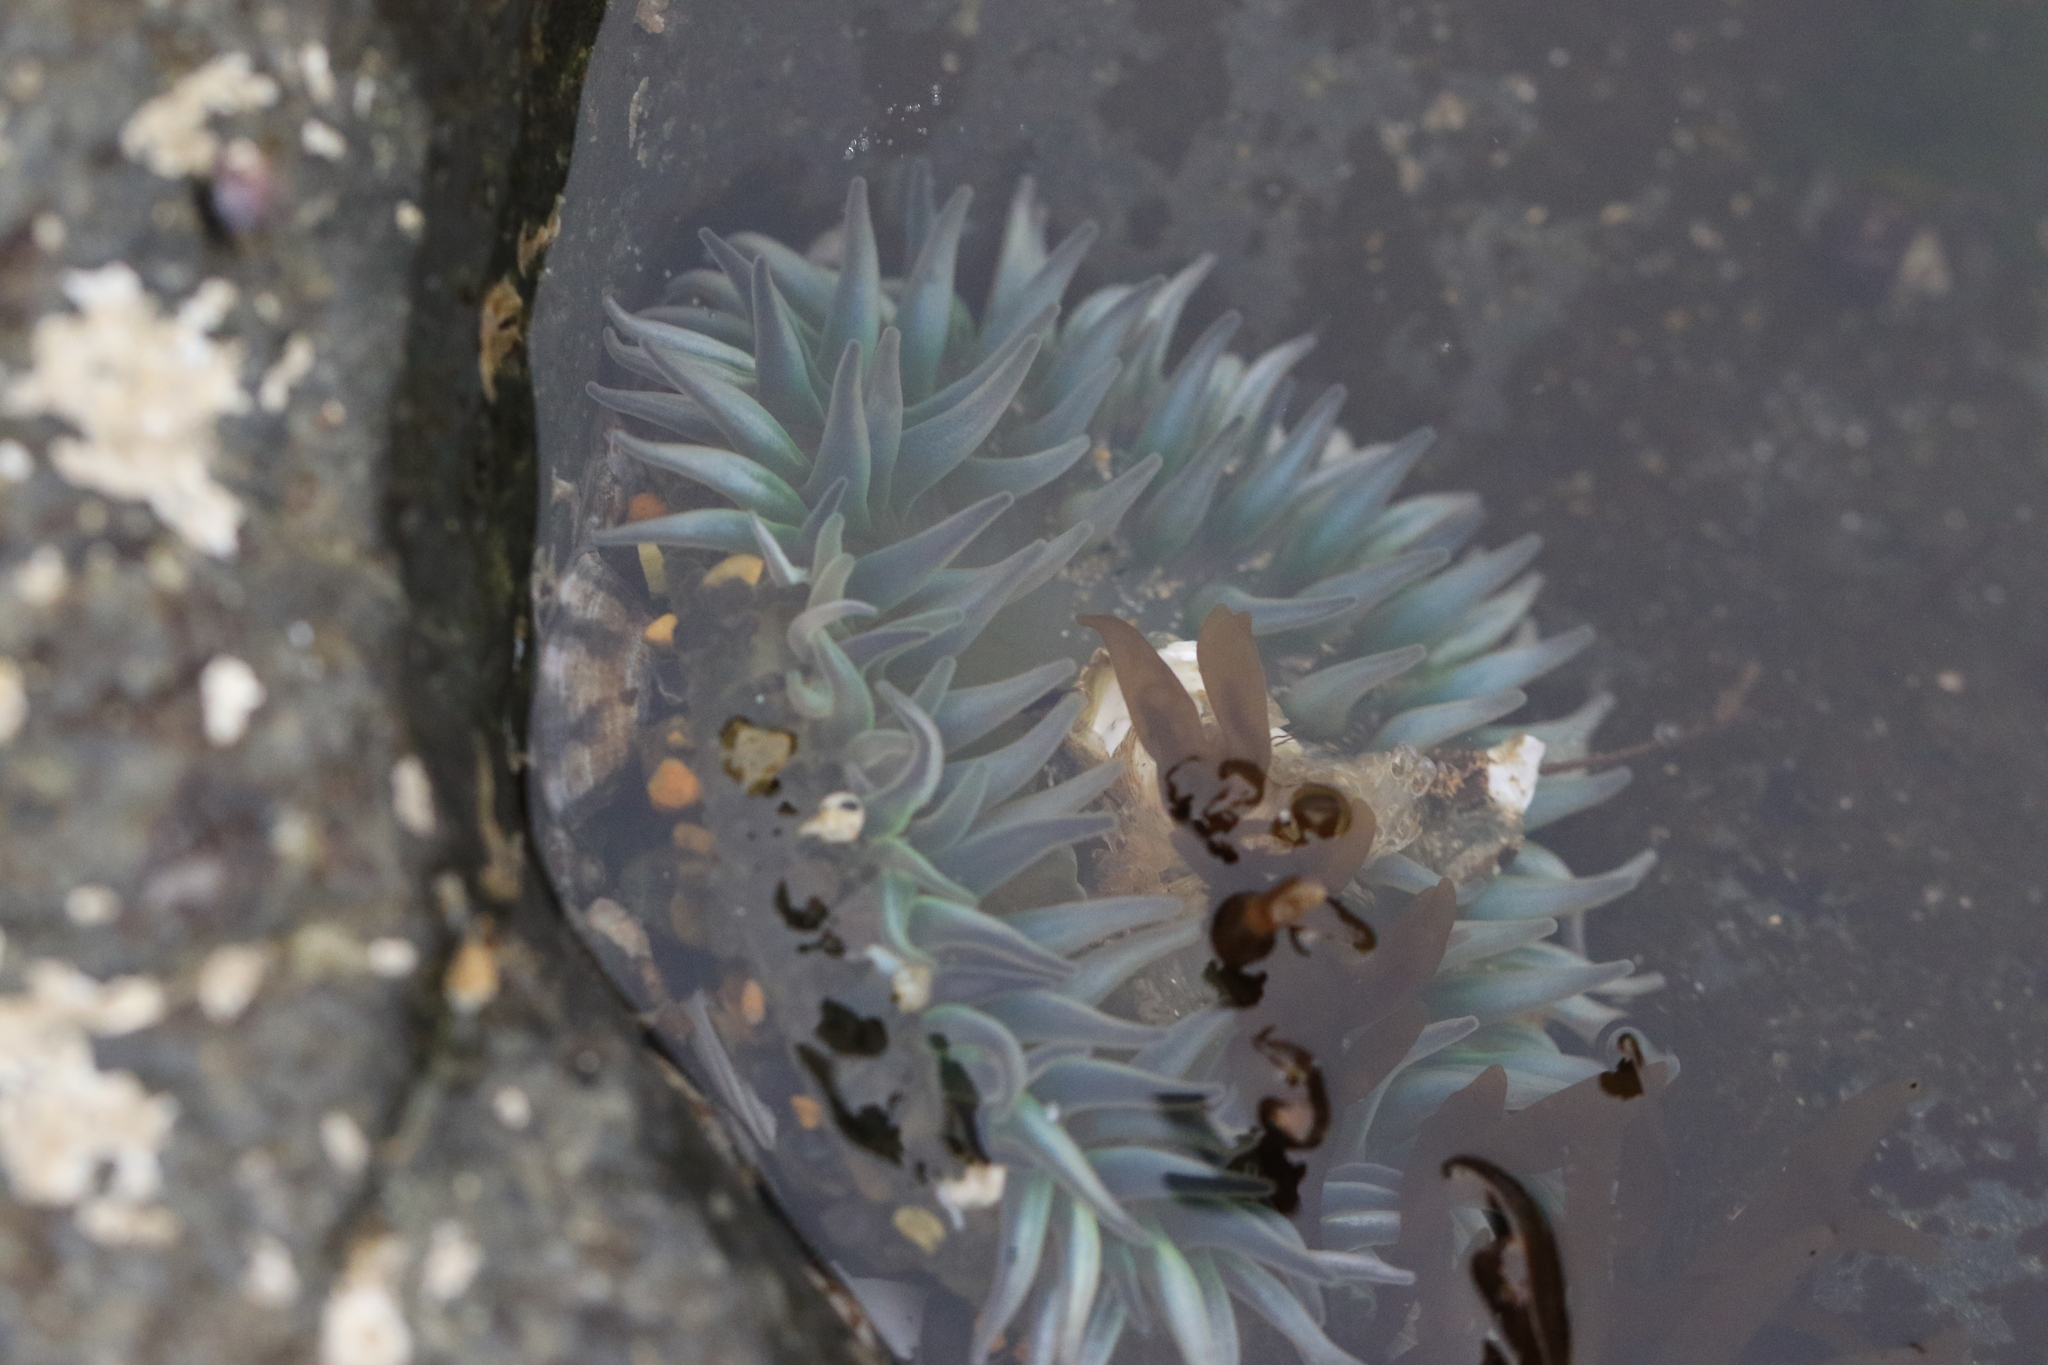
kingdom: Animalia
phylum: Cnidaria
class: Anthozoa
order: Actiniaria
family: Actiniidae
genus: Anthopleura
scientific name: Anthopleura xanthogrammica
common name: Giant green anemone
